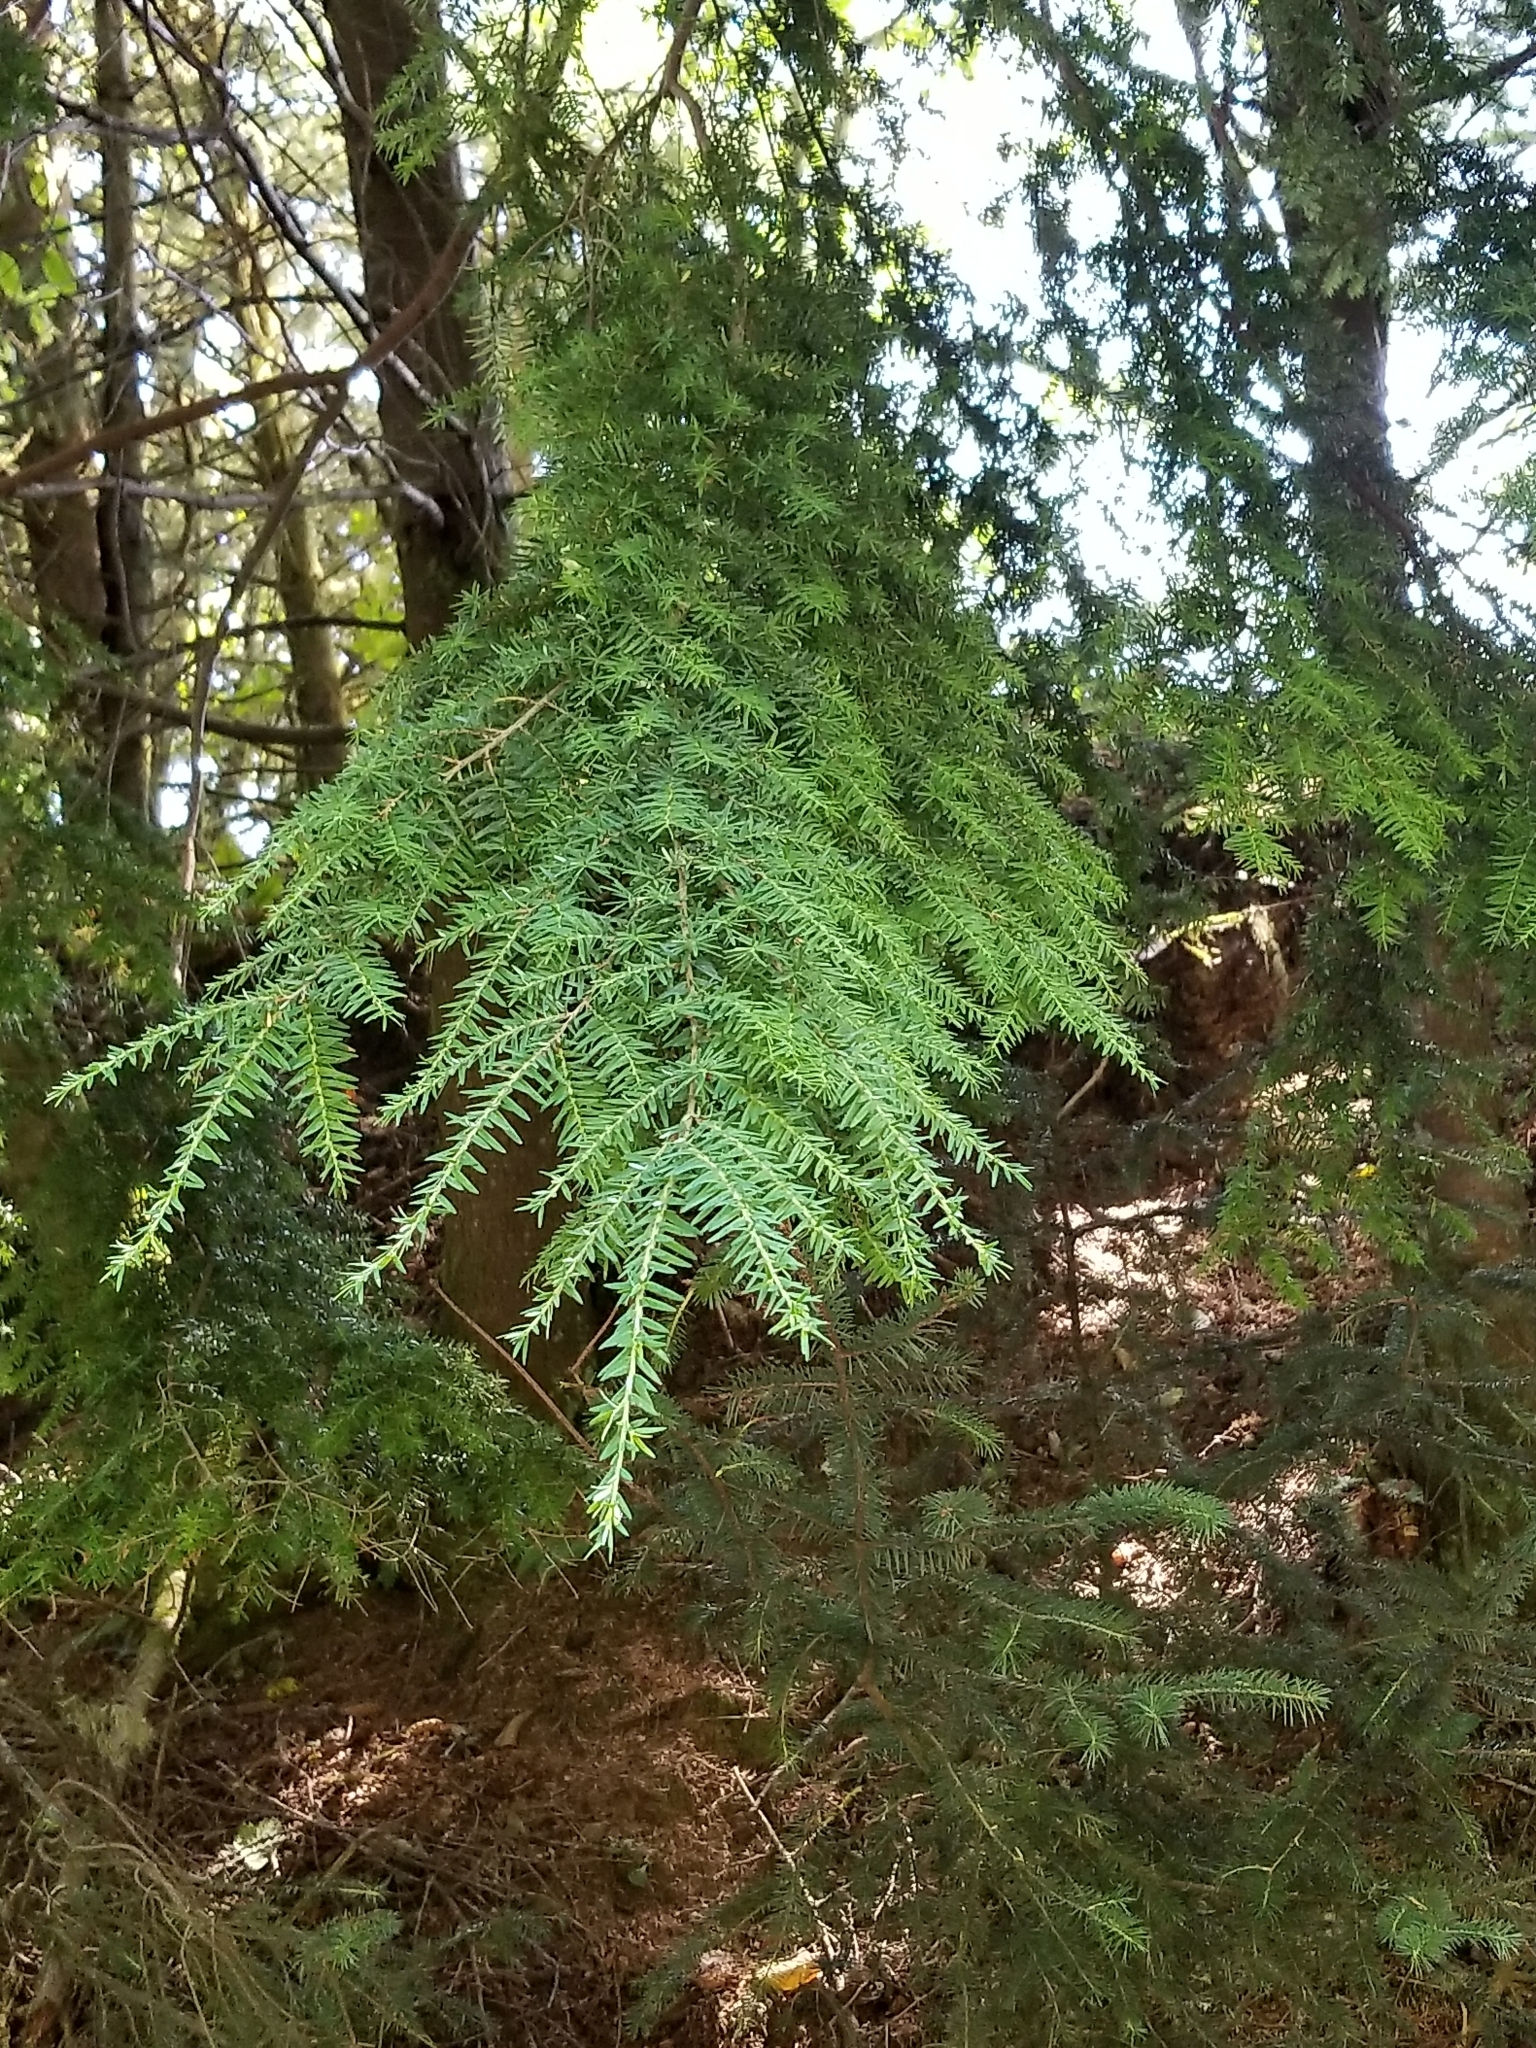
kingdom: Plantae
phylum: Tracheophyta
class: Pinopsida
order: Pinales
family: Pinaceae
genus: Tsuga
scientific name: Tsuga heterophylla
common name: Western hemlock
